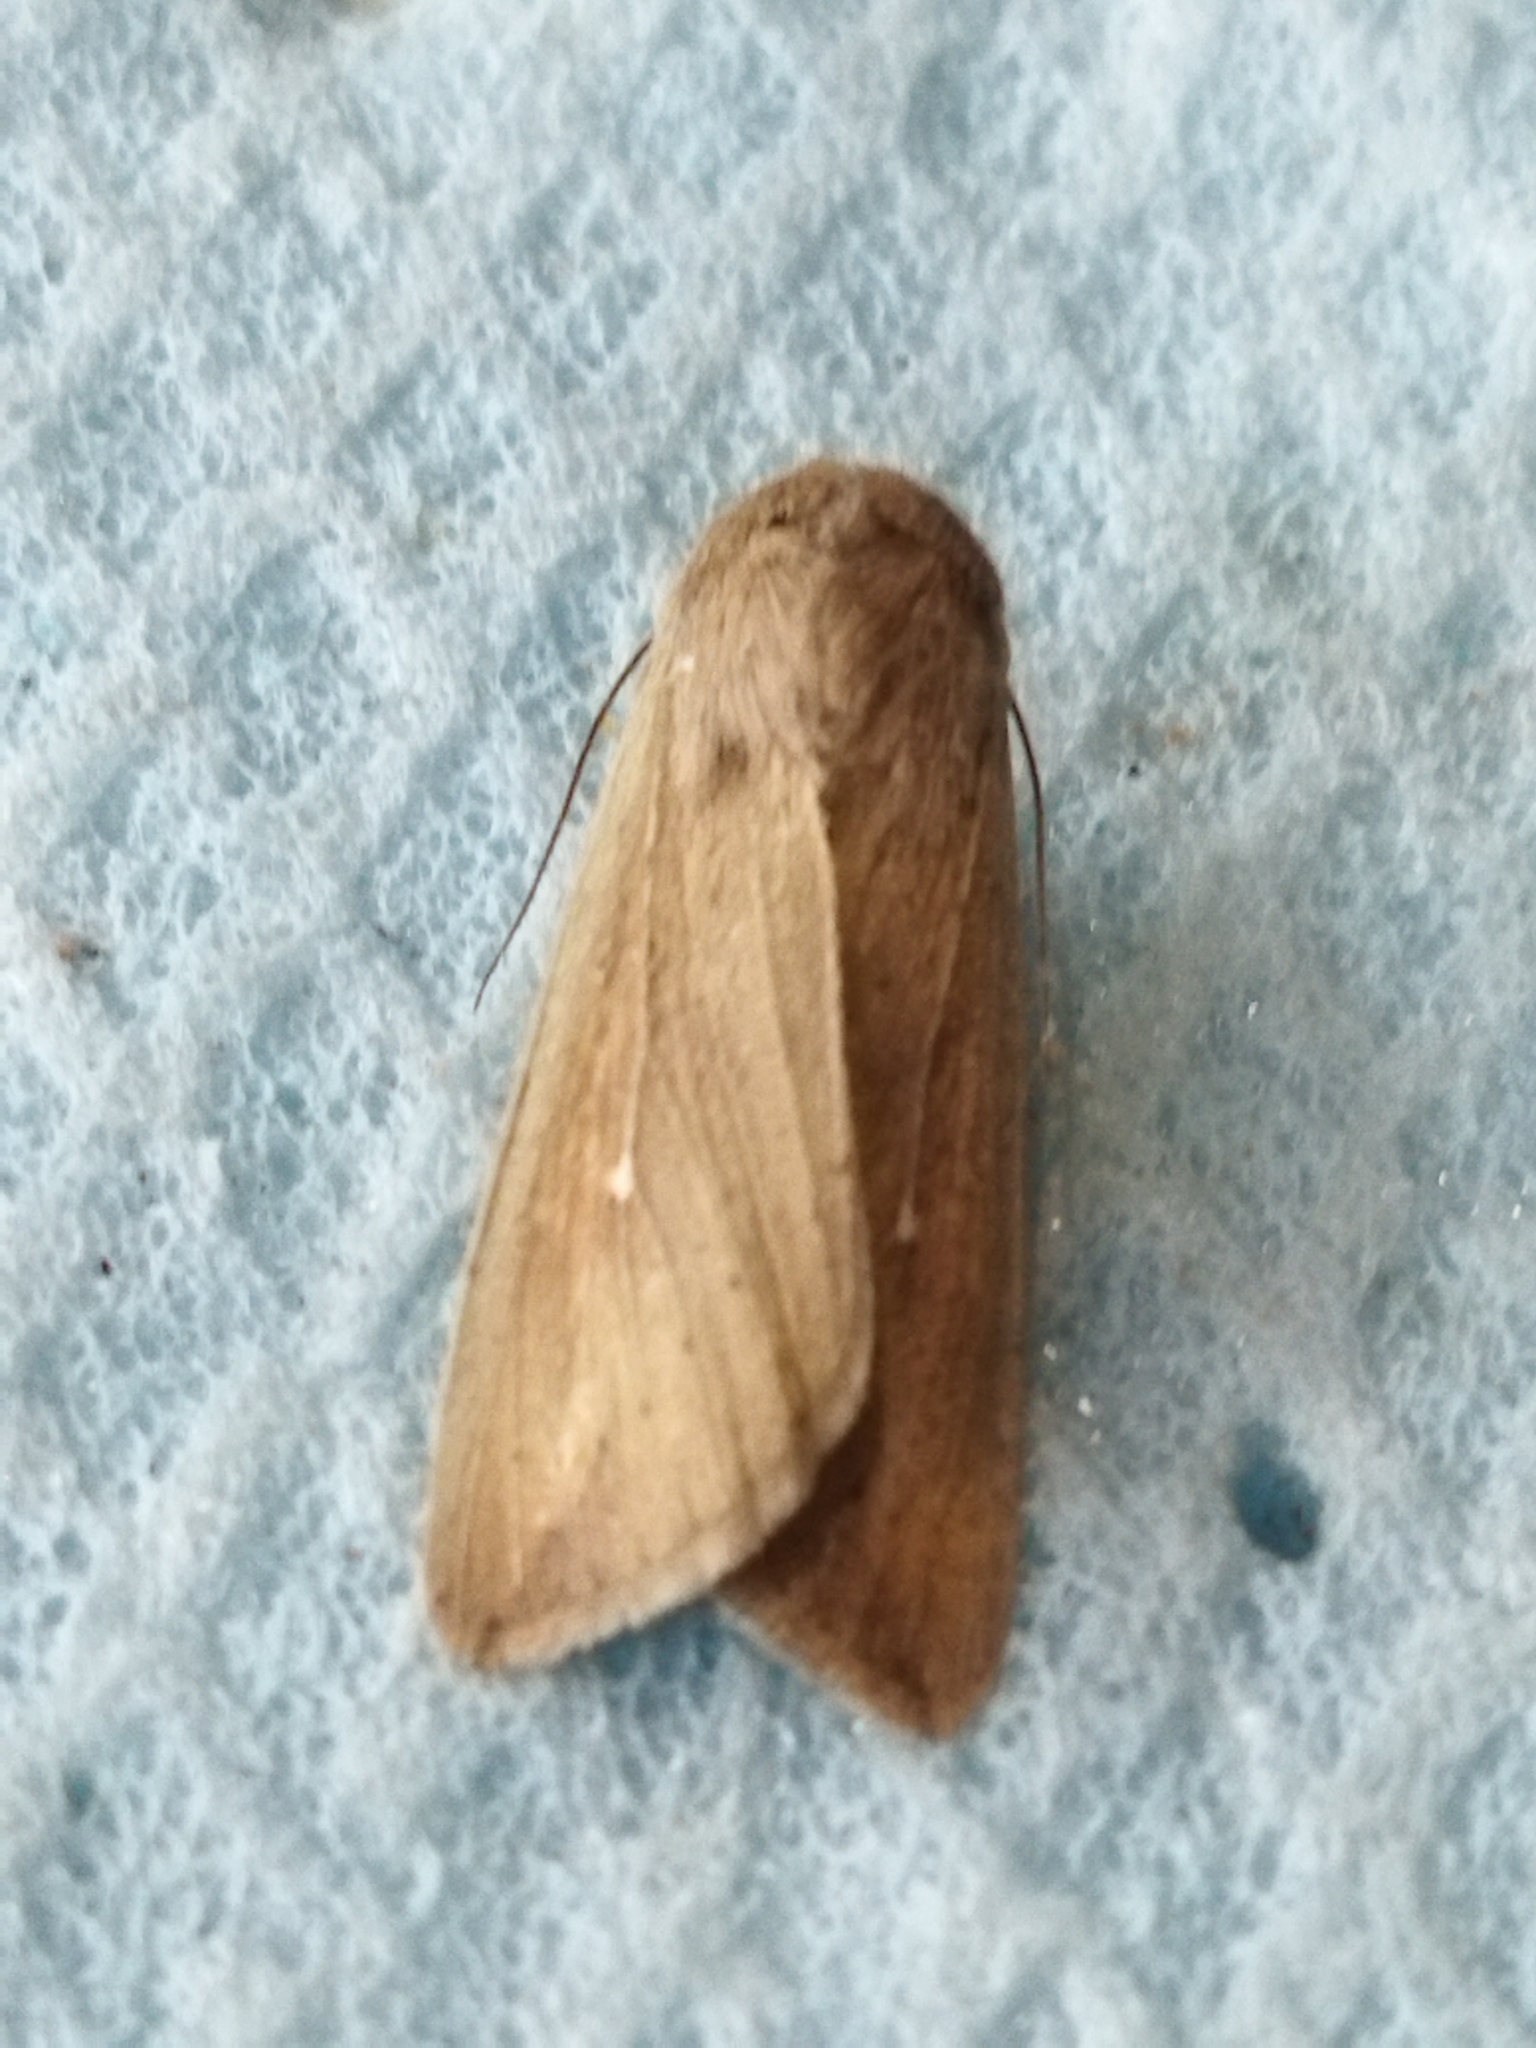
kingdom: Animalia
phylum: Arthropoda
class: Insecta
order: Lepidoptera
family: Noctuidae
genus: Mythimna
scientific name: Mythimna unipuncta
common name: White-speck
